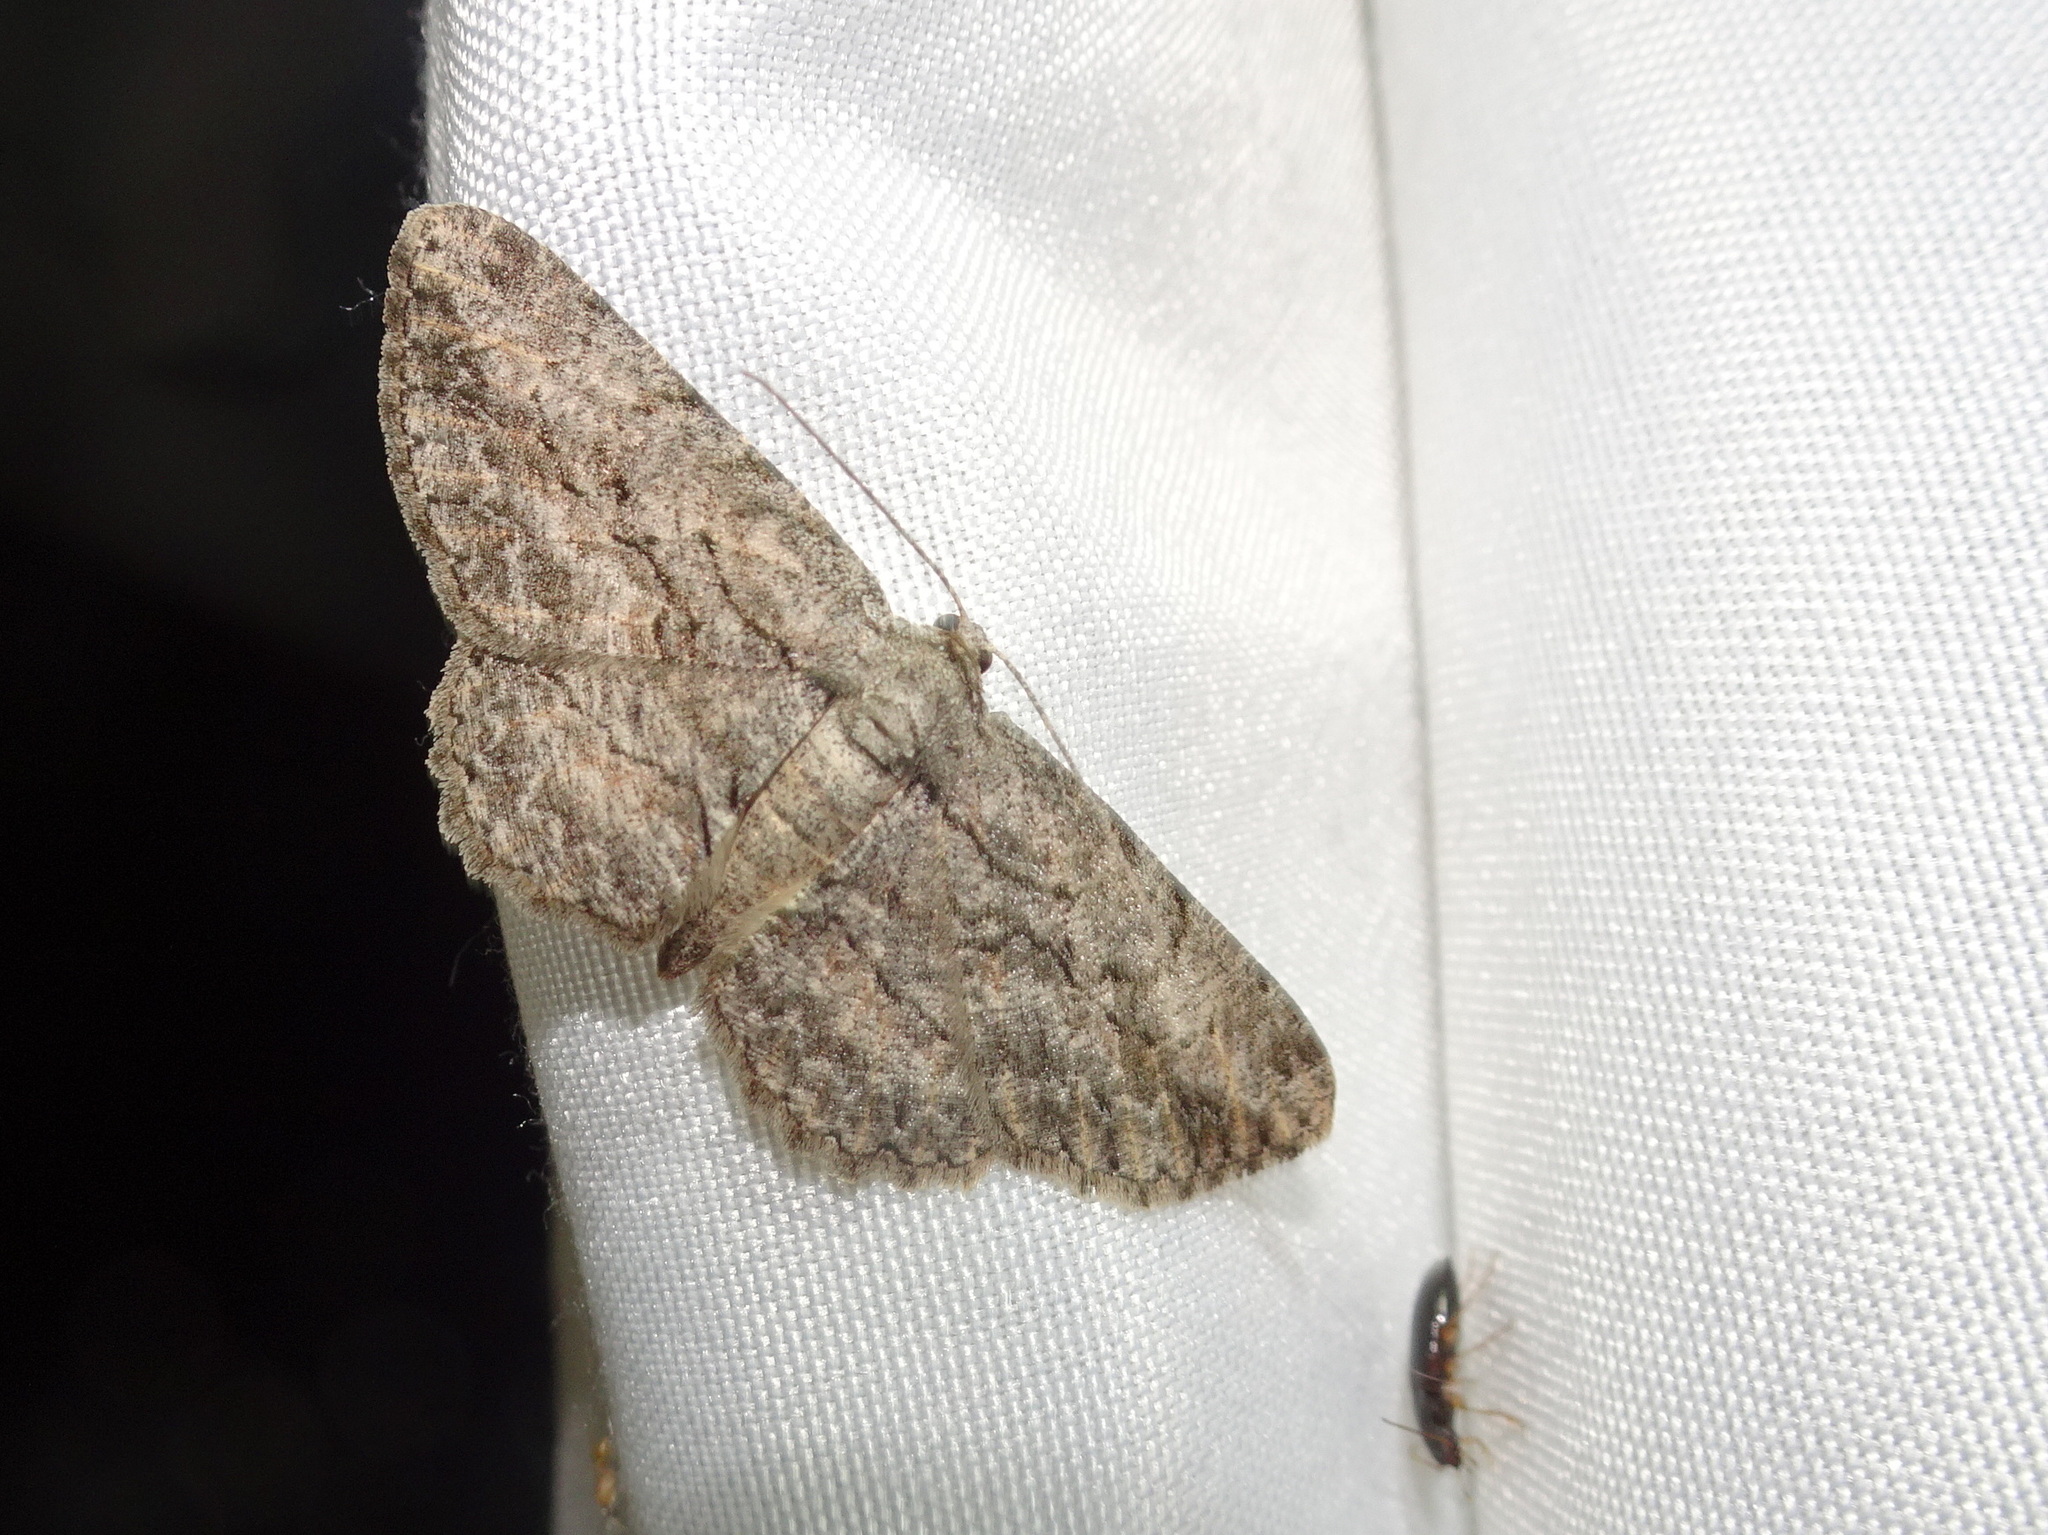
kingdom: Animalia
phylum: Arthropoda
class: Insecta
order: Lepidoptera
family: Geometridae
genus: Anavitrinella
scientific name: Anavitrinella pampinaria
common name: Common gray
